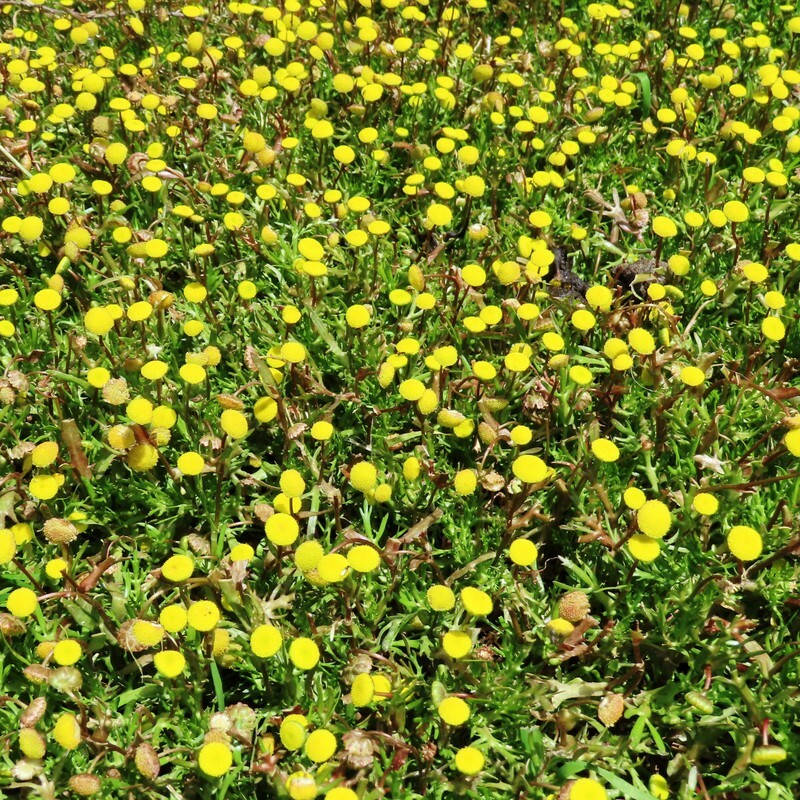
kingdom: Plantae
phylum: Tracheophyta
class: Magnoliopsida
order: Asterales
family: Asteraceae
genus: Cotula
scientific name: Cotula coronopifolia
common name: Buttonweed
